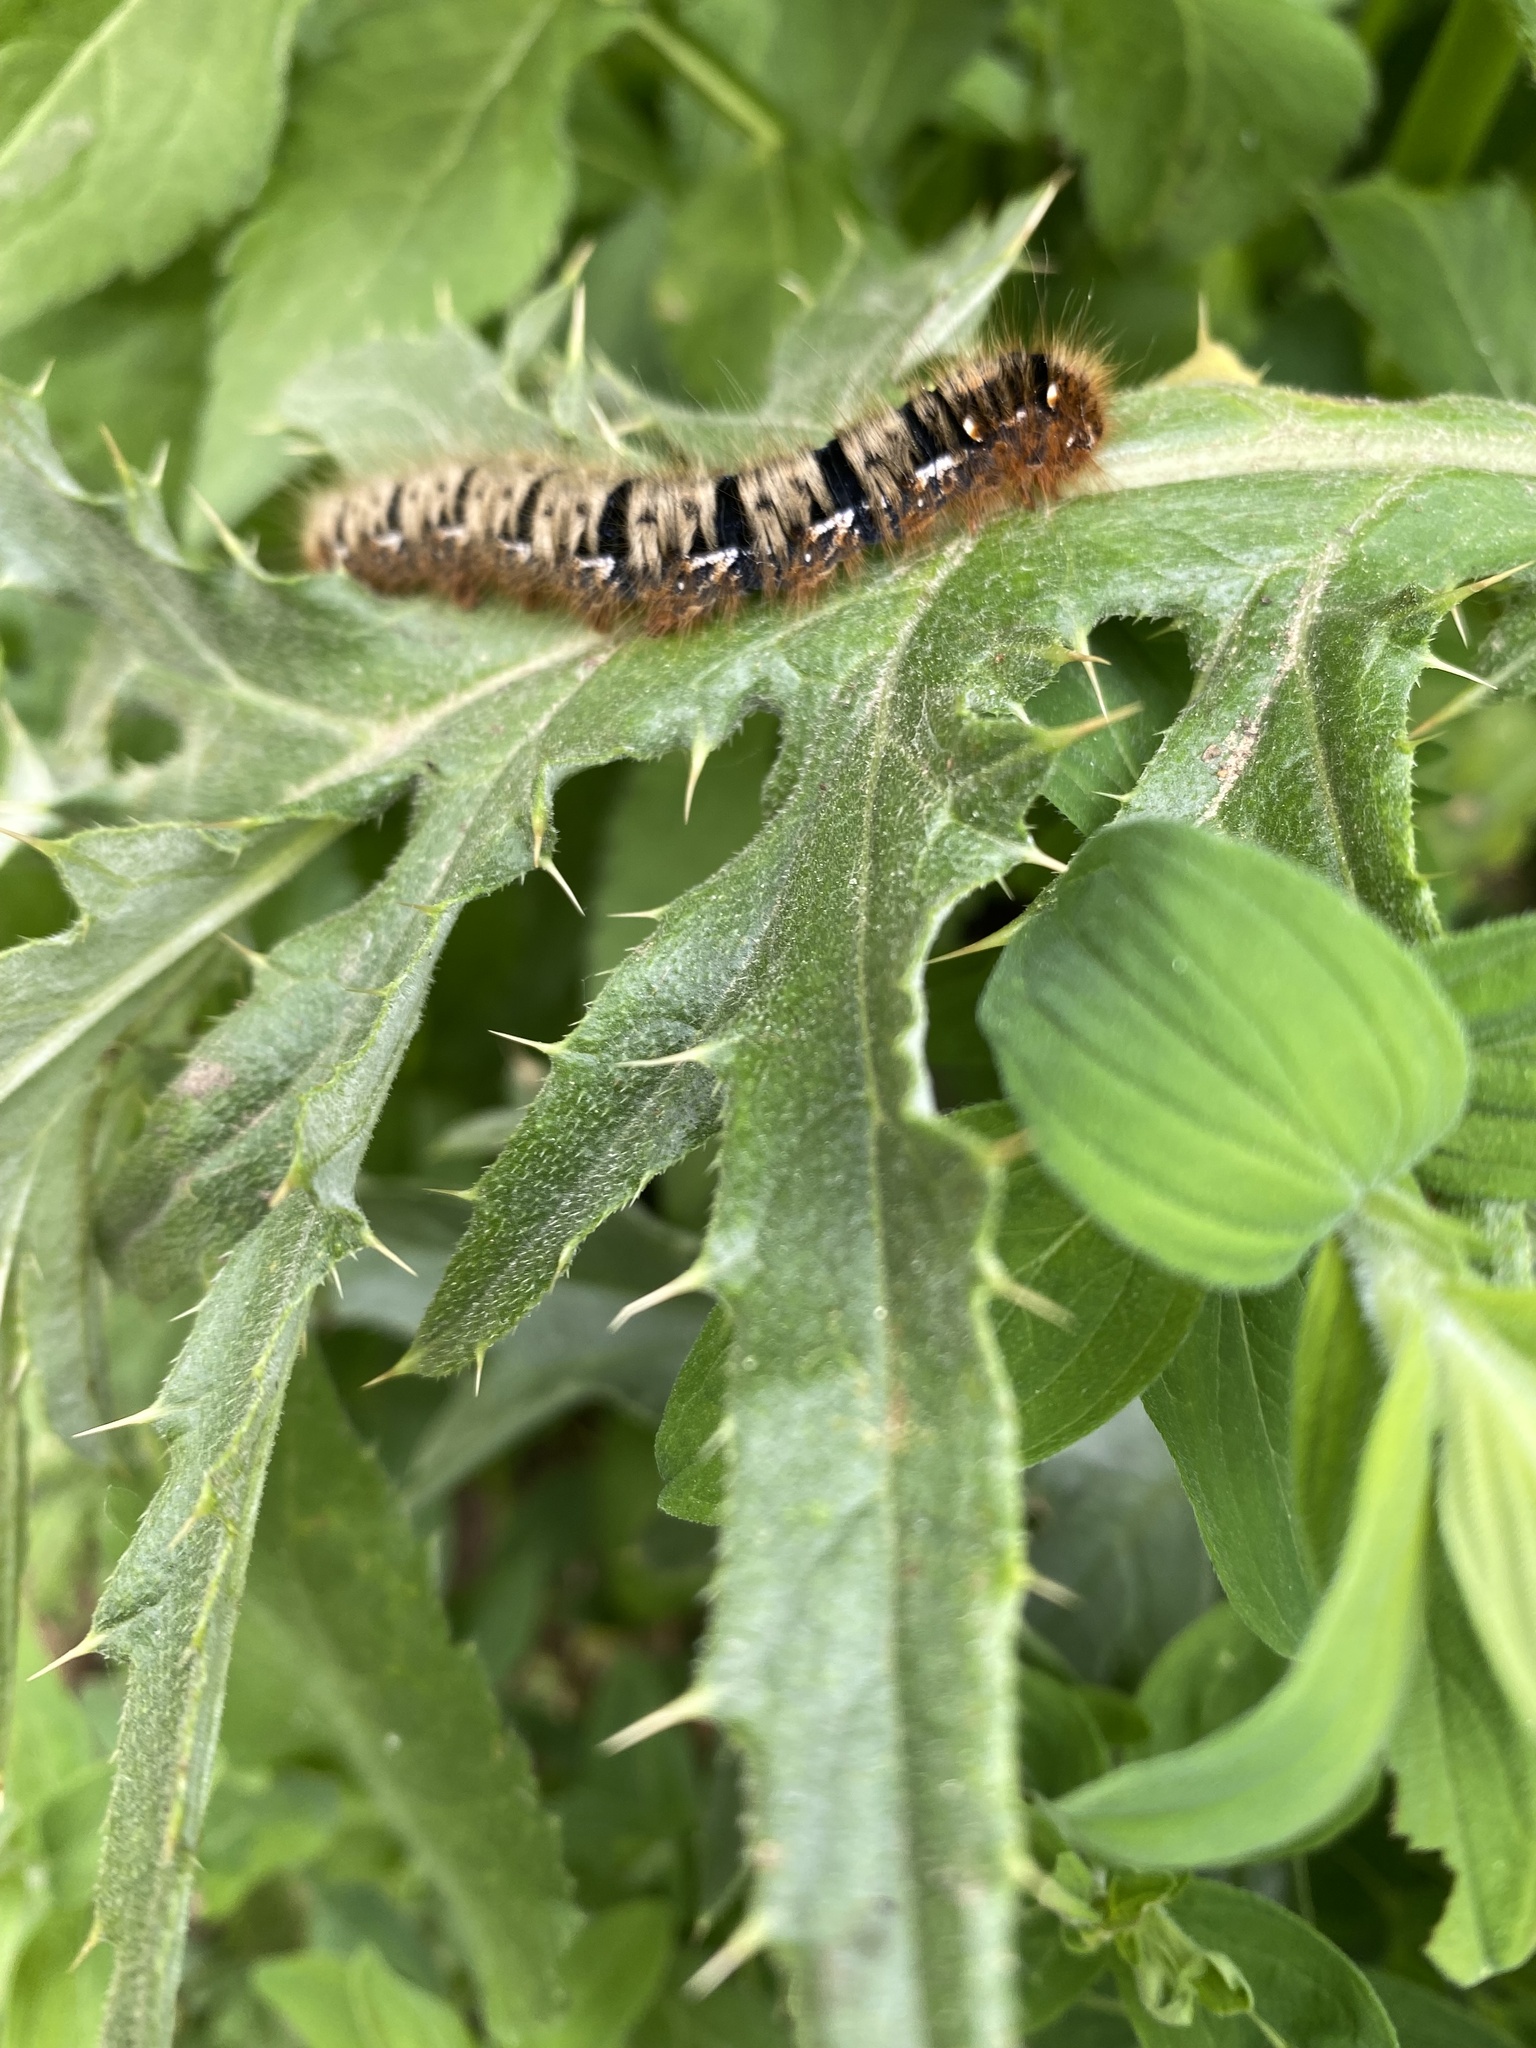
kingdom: Animalia
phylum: Arthropoda
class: Insecta
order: Lepidoptera
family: Lasiocampidae
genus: Lasiocampa
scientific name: Lasiocampa quercus
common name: Oak eggar
